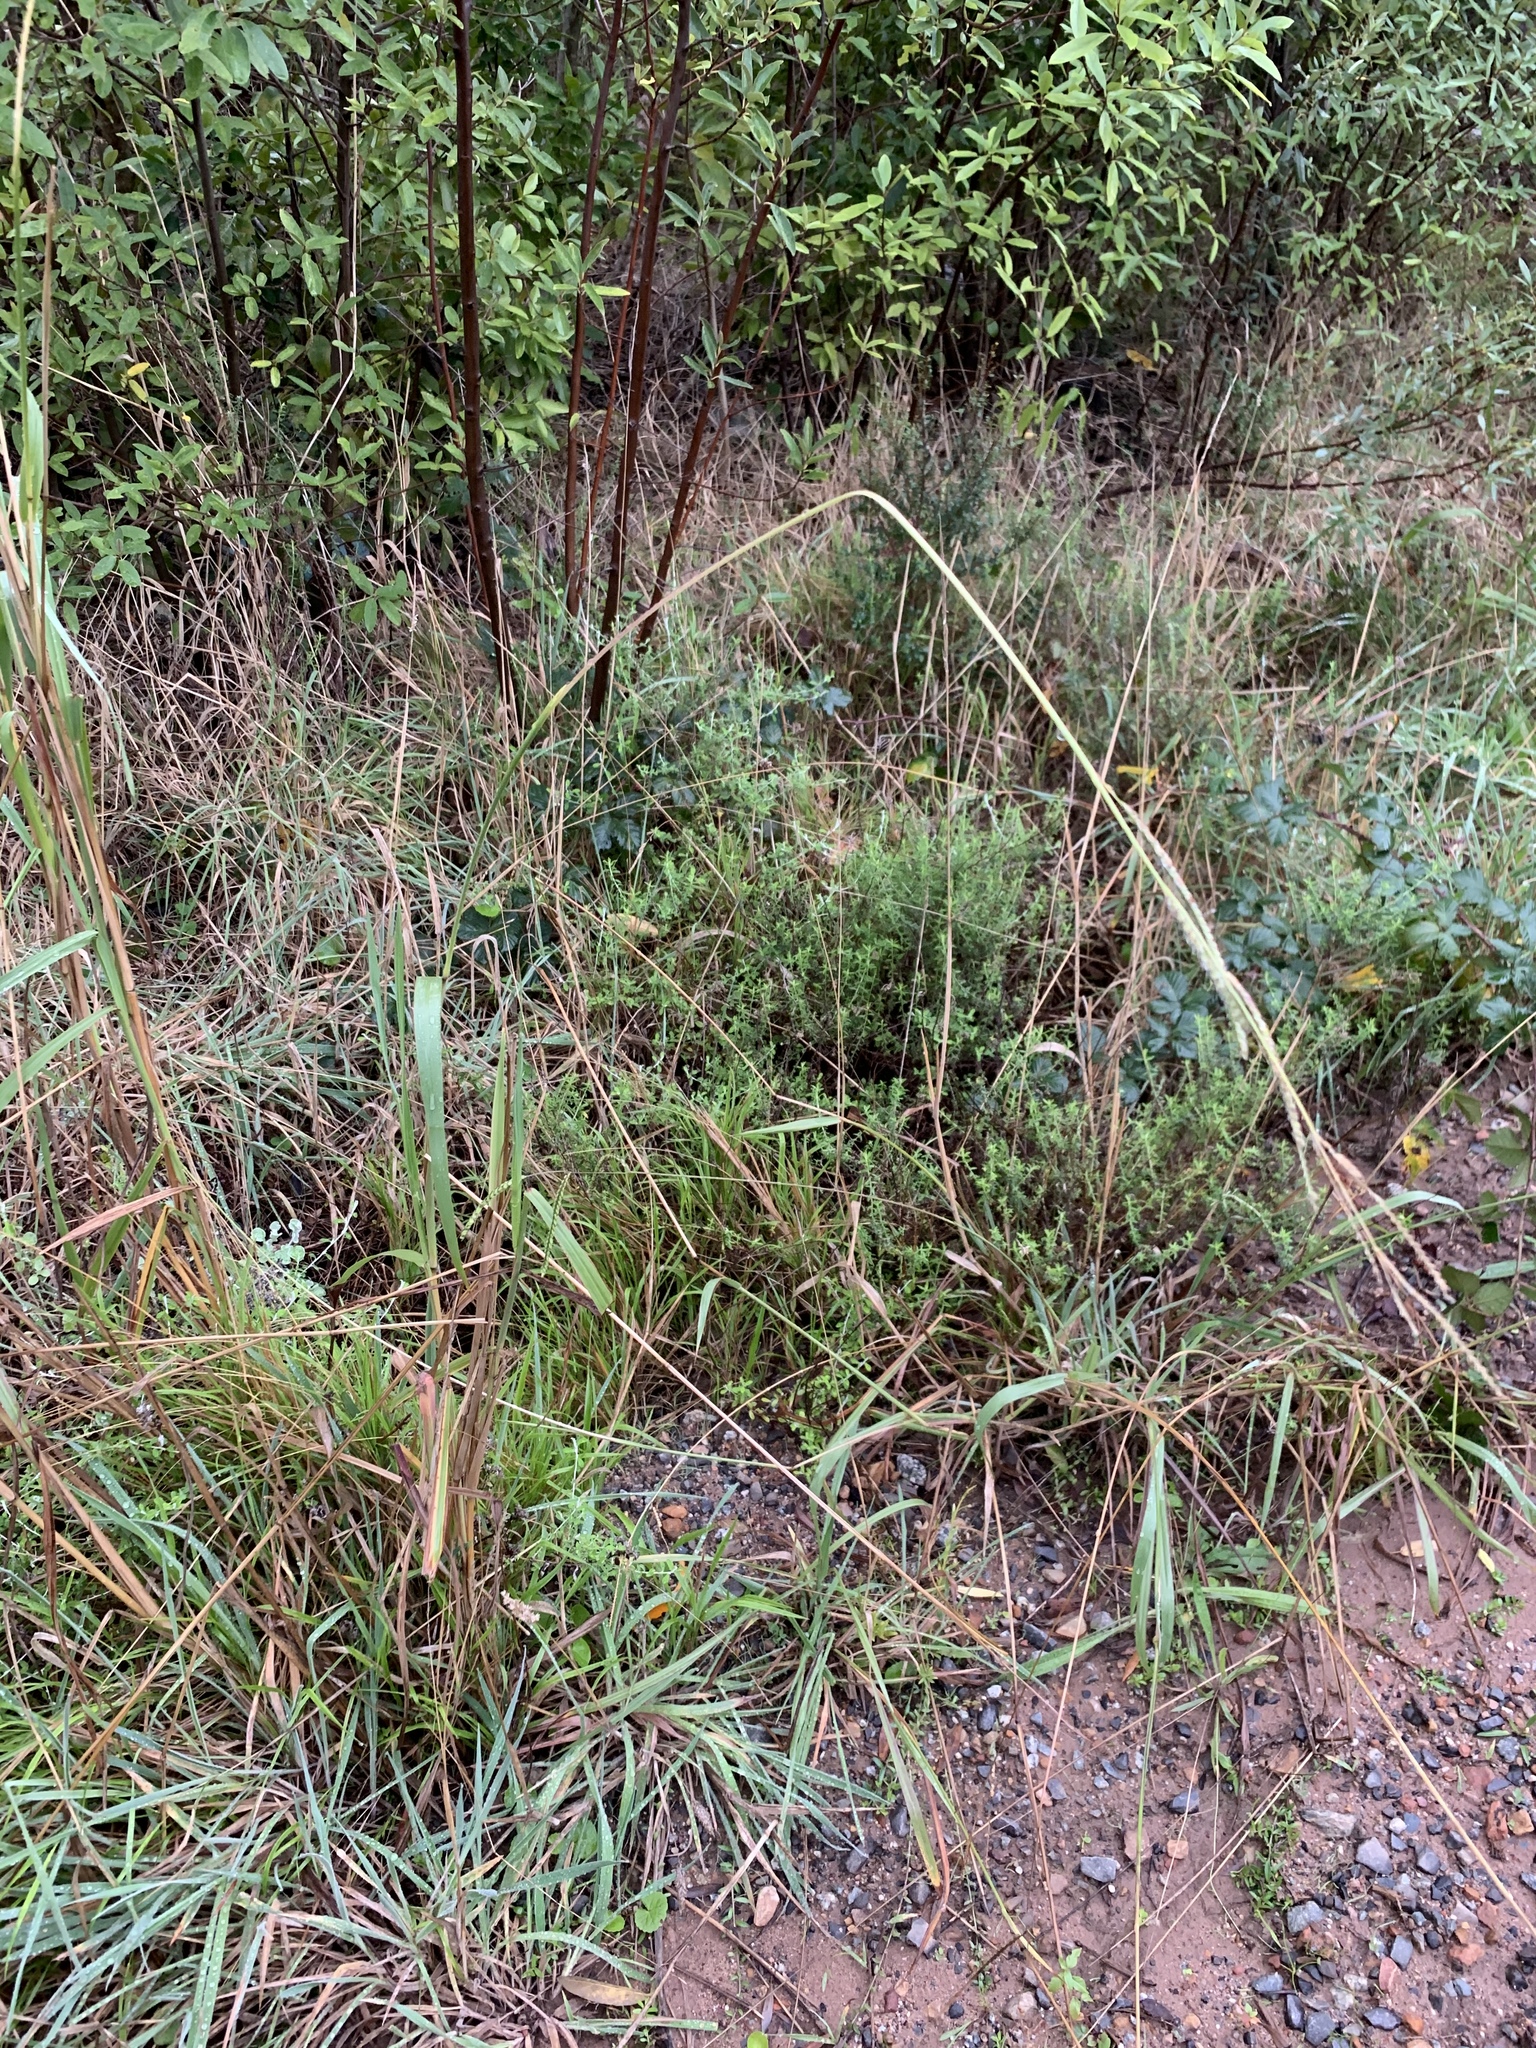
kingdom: Plantae
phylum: Tracheophyta
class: Liliopsida
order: Poales
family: Poaceae
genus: Paspalum
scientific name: Paspalum urvillei
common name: Vasey's grass
